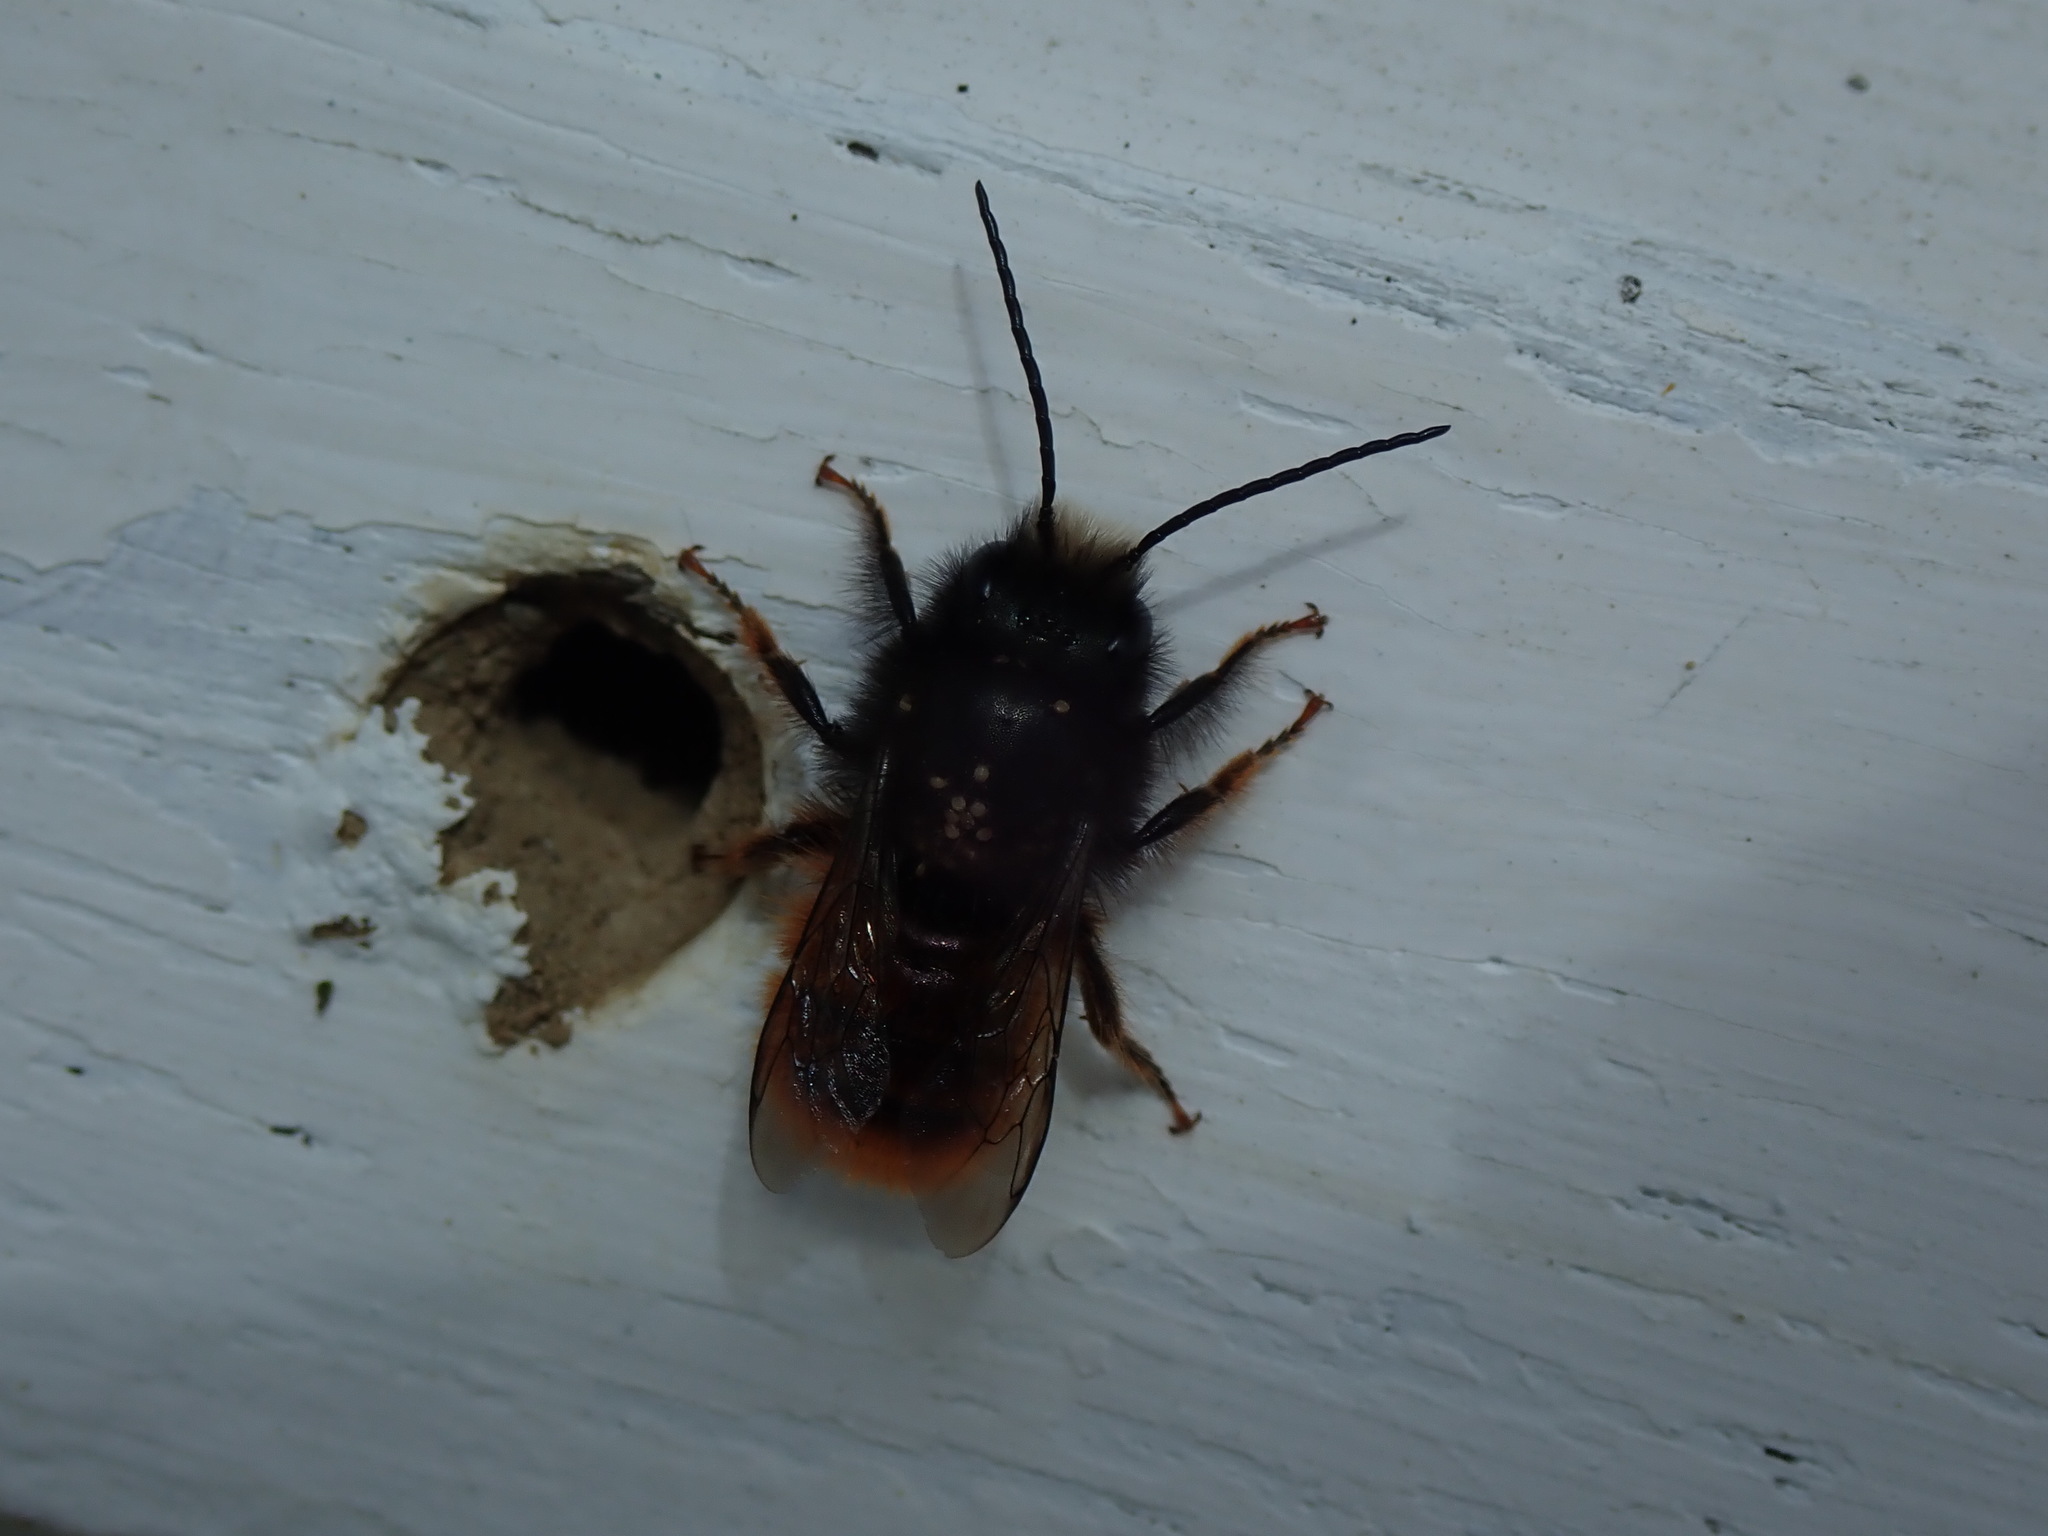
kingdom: Animalia
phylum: Arthropoda
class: Insecta
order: Hymenoptera
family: Megachilidae
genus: Osmia
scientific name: Osmia cornuta
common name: Mason bee
